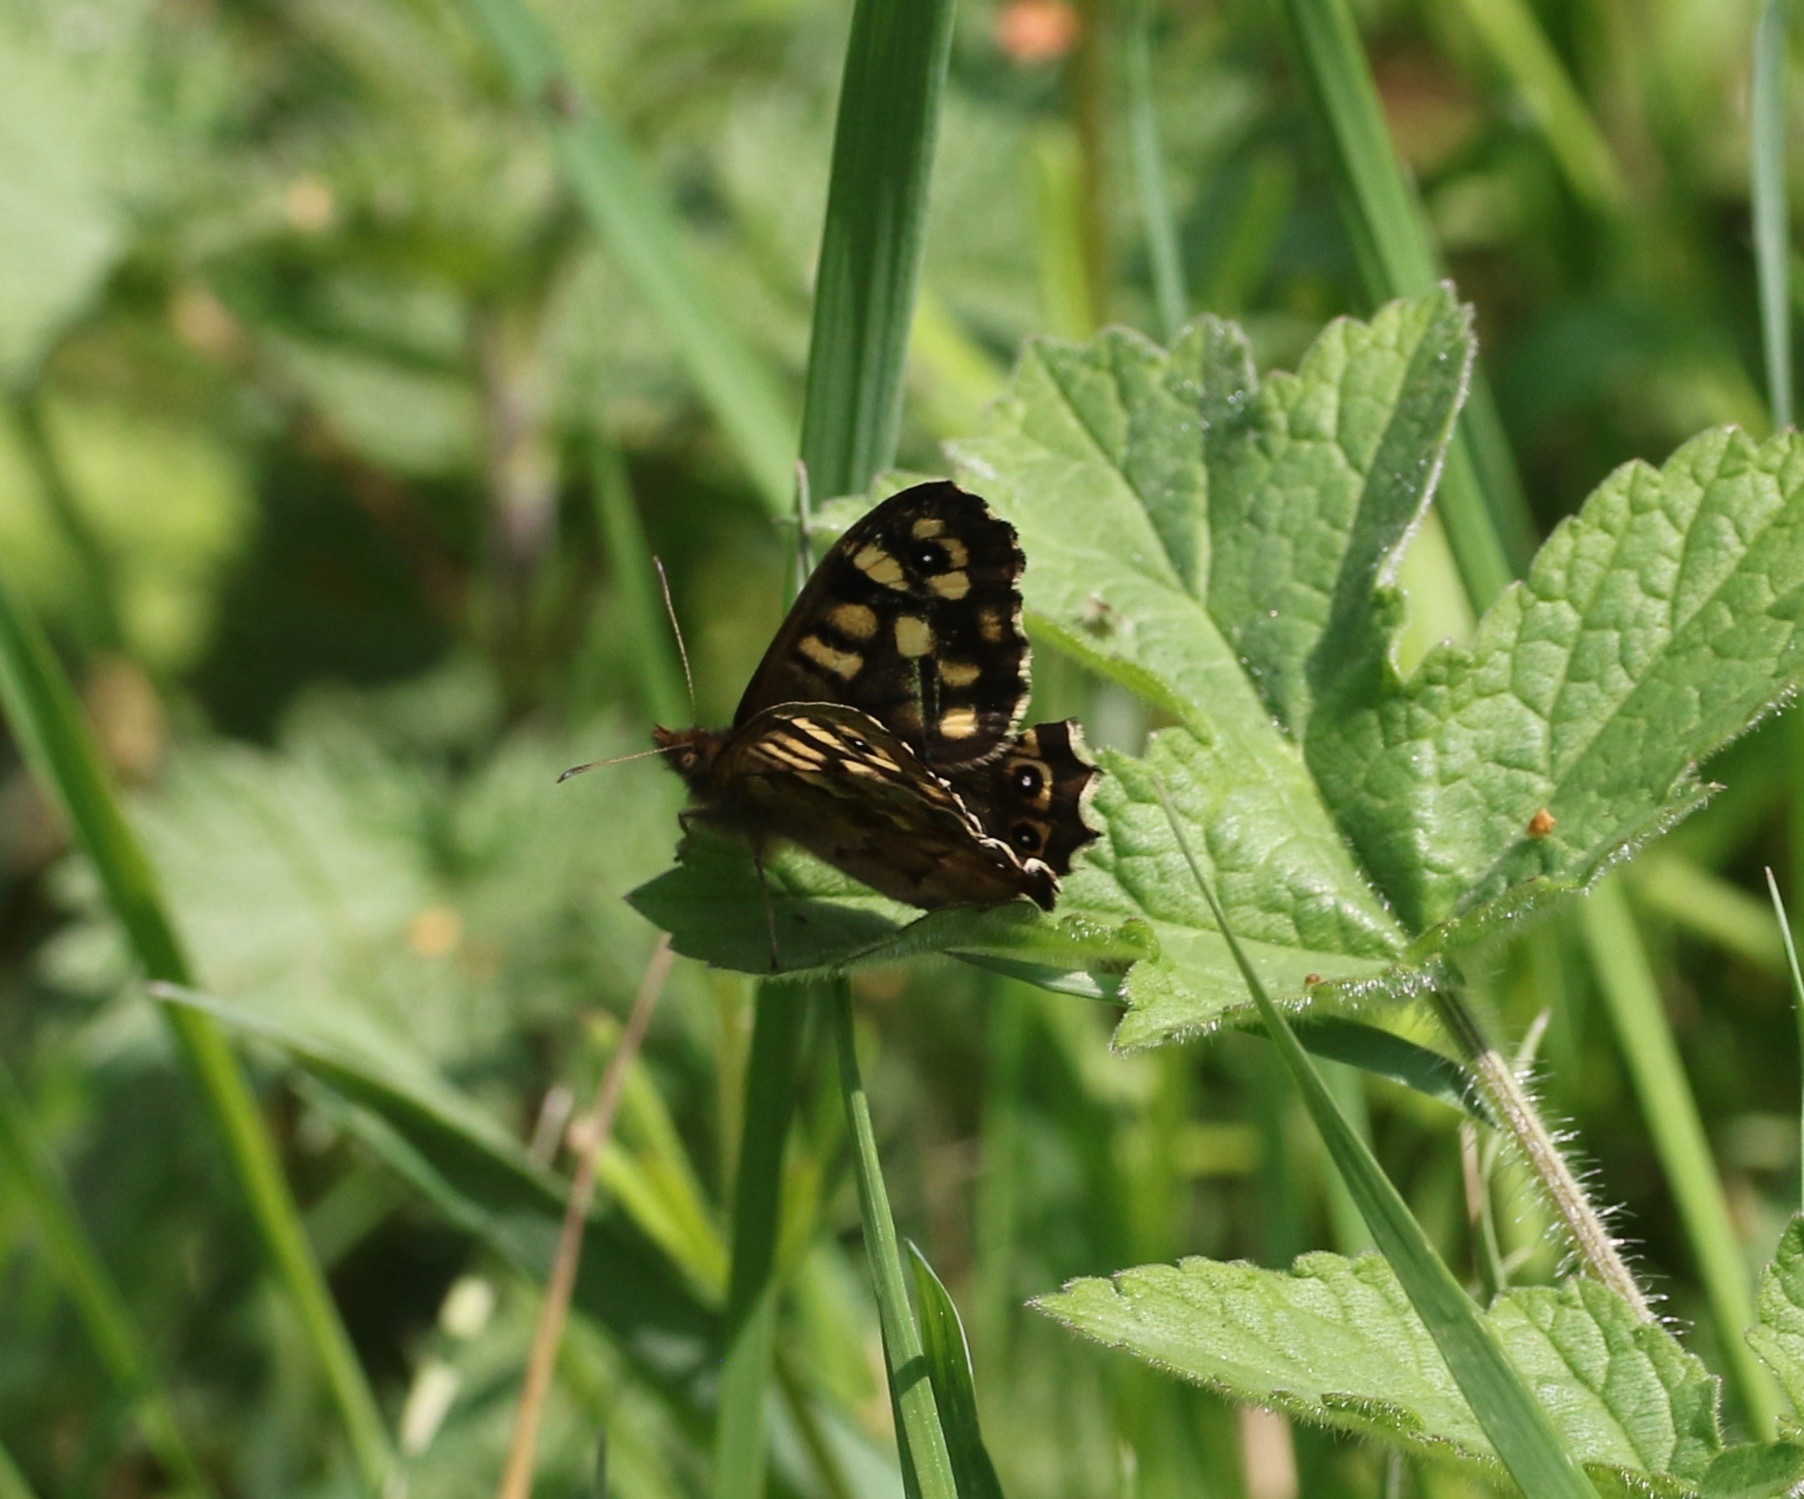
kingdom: Animalia
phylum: Arthropoda
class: Insecta
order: Lepidoptera
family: Nymphalidae
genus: Pararge
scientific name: Pararge aegeria
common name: Speckled wood
